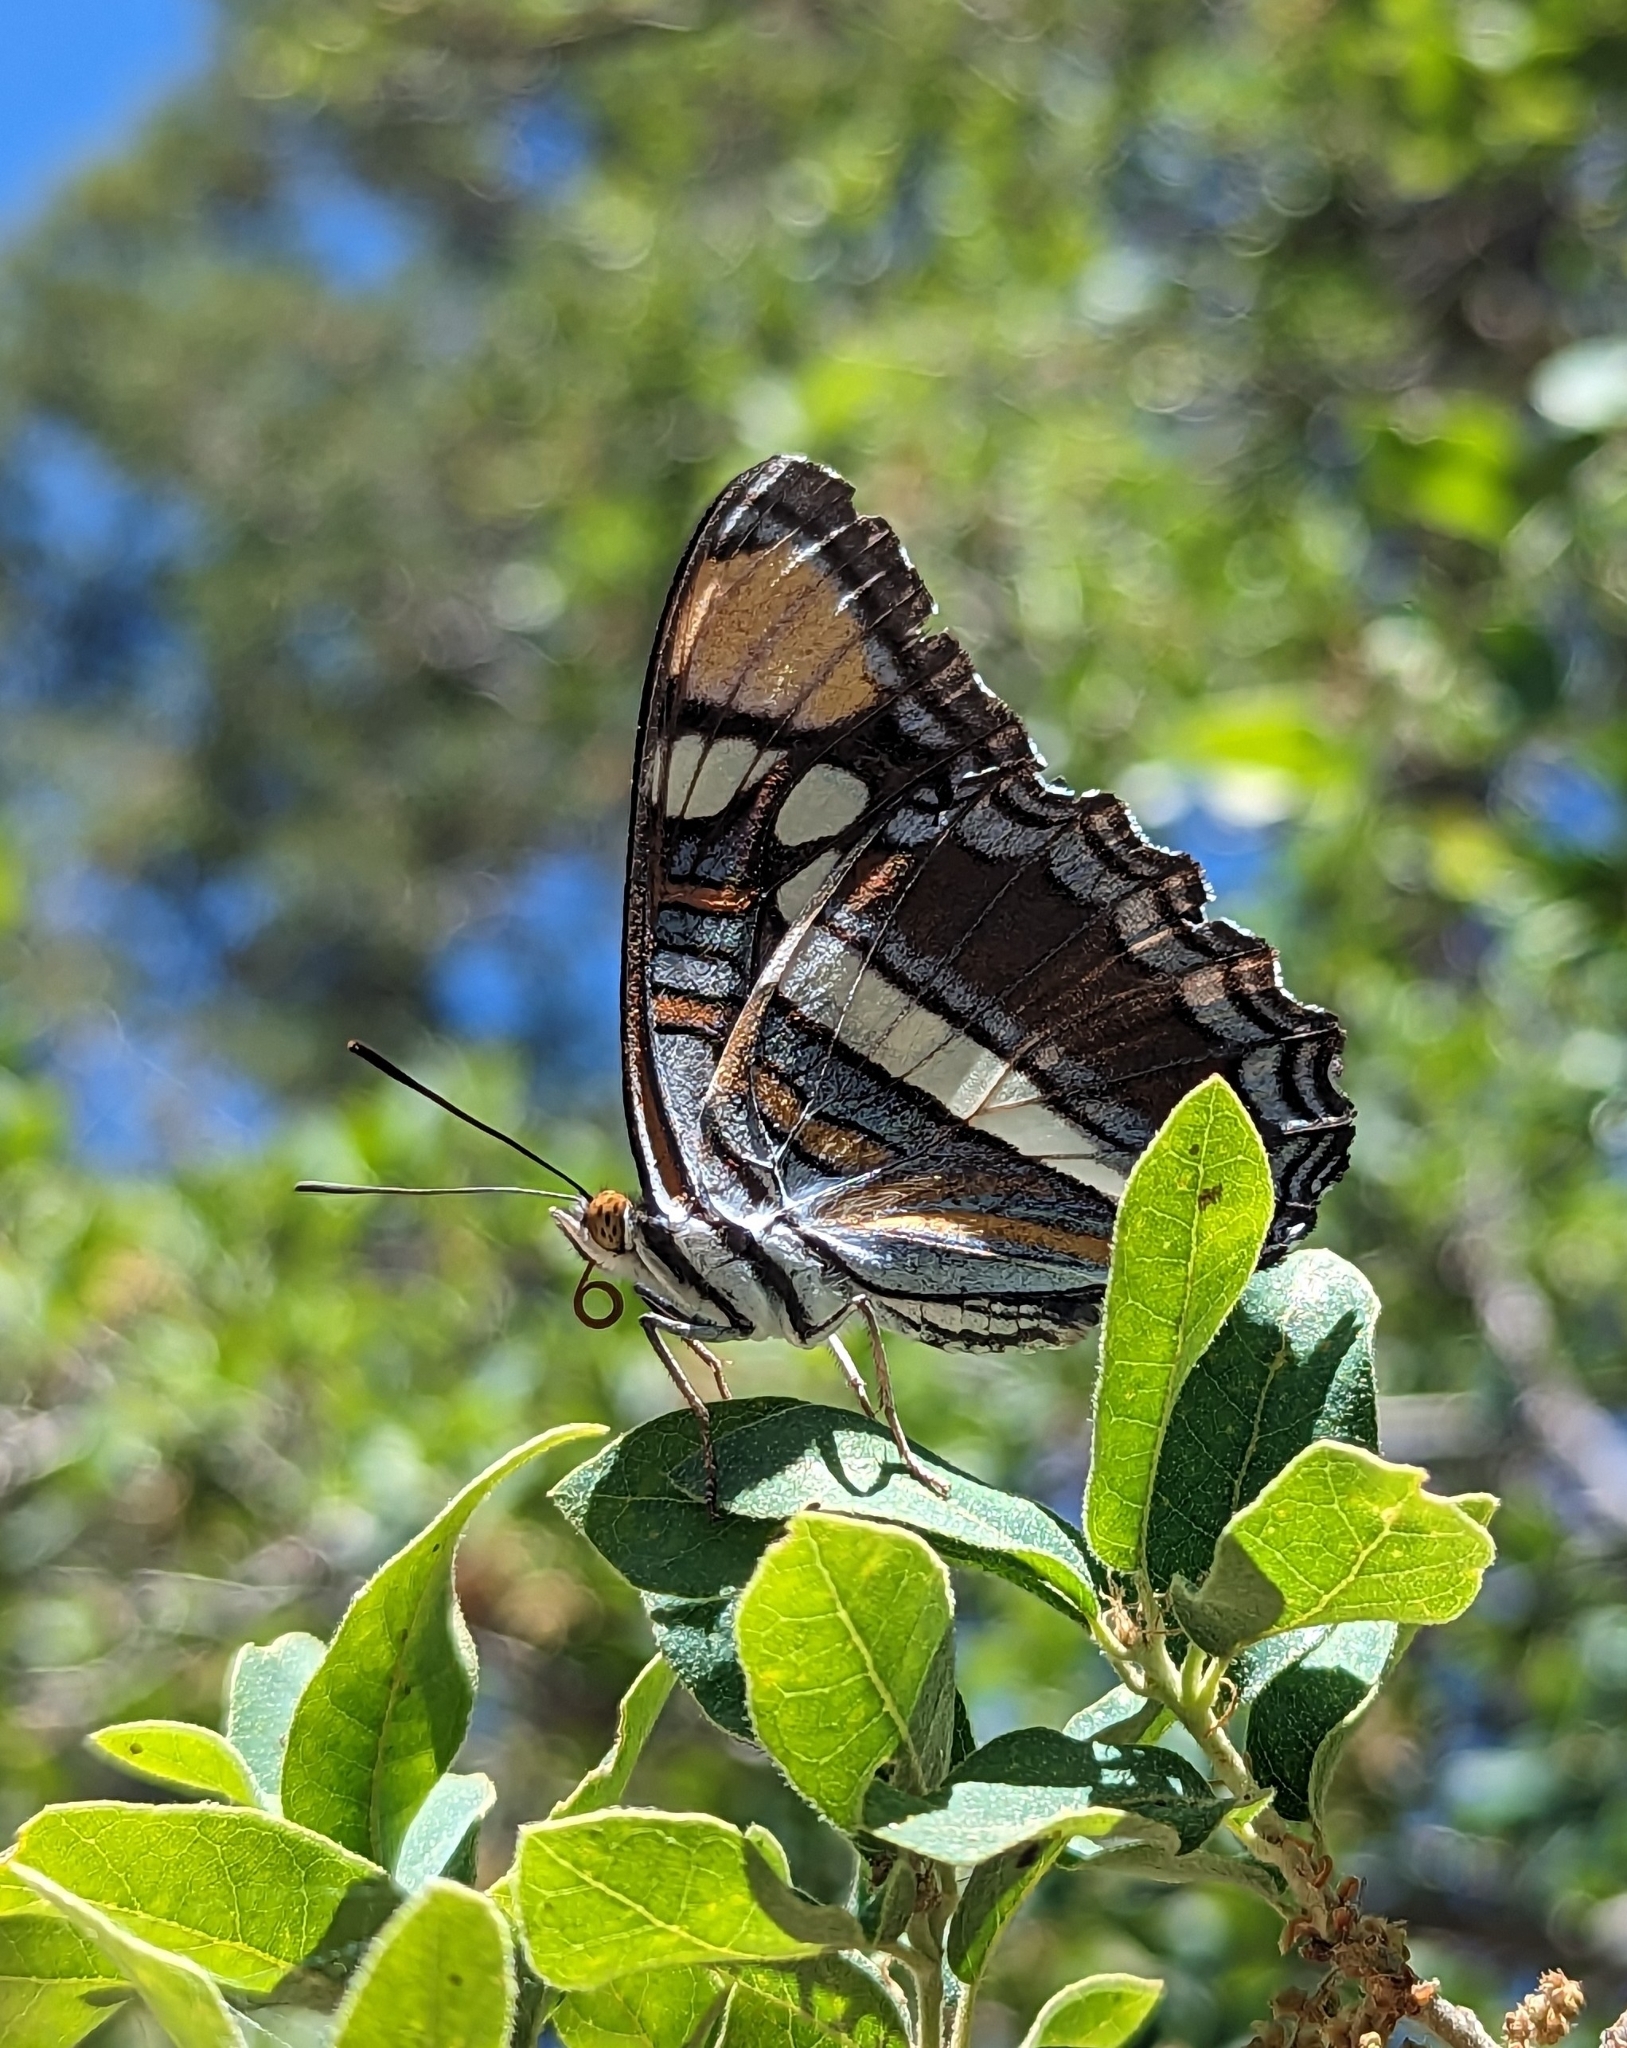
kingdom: Animalia
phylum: Arthropoda
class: Insecta
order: Lepidoptera
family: Nymphalidae
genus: Limenitis
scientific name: Limenitis bredowii
